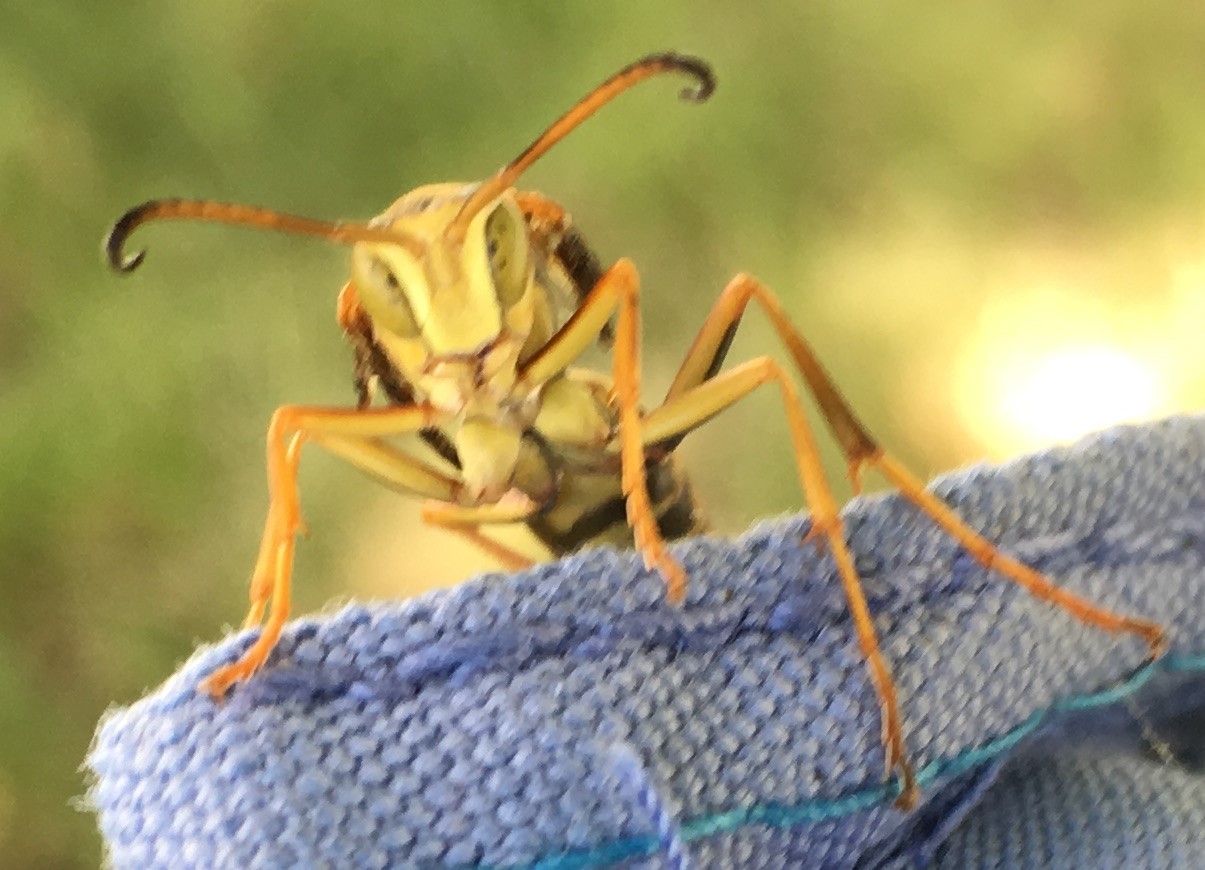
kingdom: Animalia
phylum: Arthropoda
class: Insecta
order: Hymenoptera
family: Eumenidae
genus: Polistes
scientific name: Polistes fuscatus
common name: Dark paper wasp
